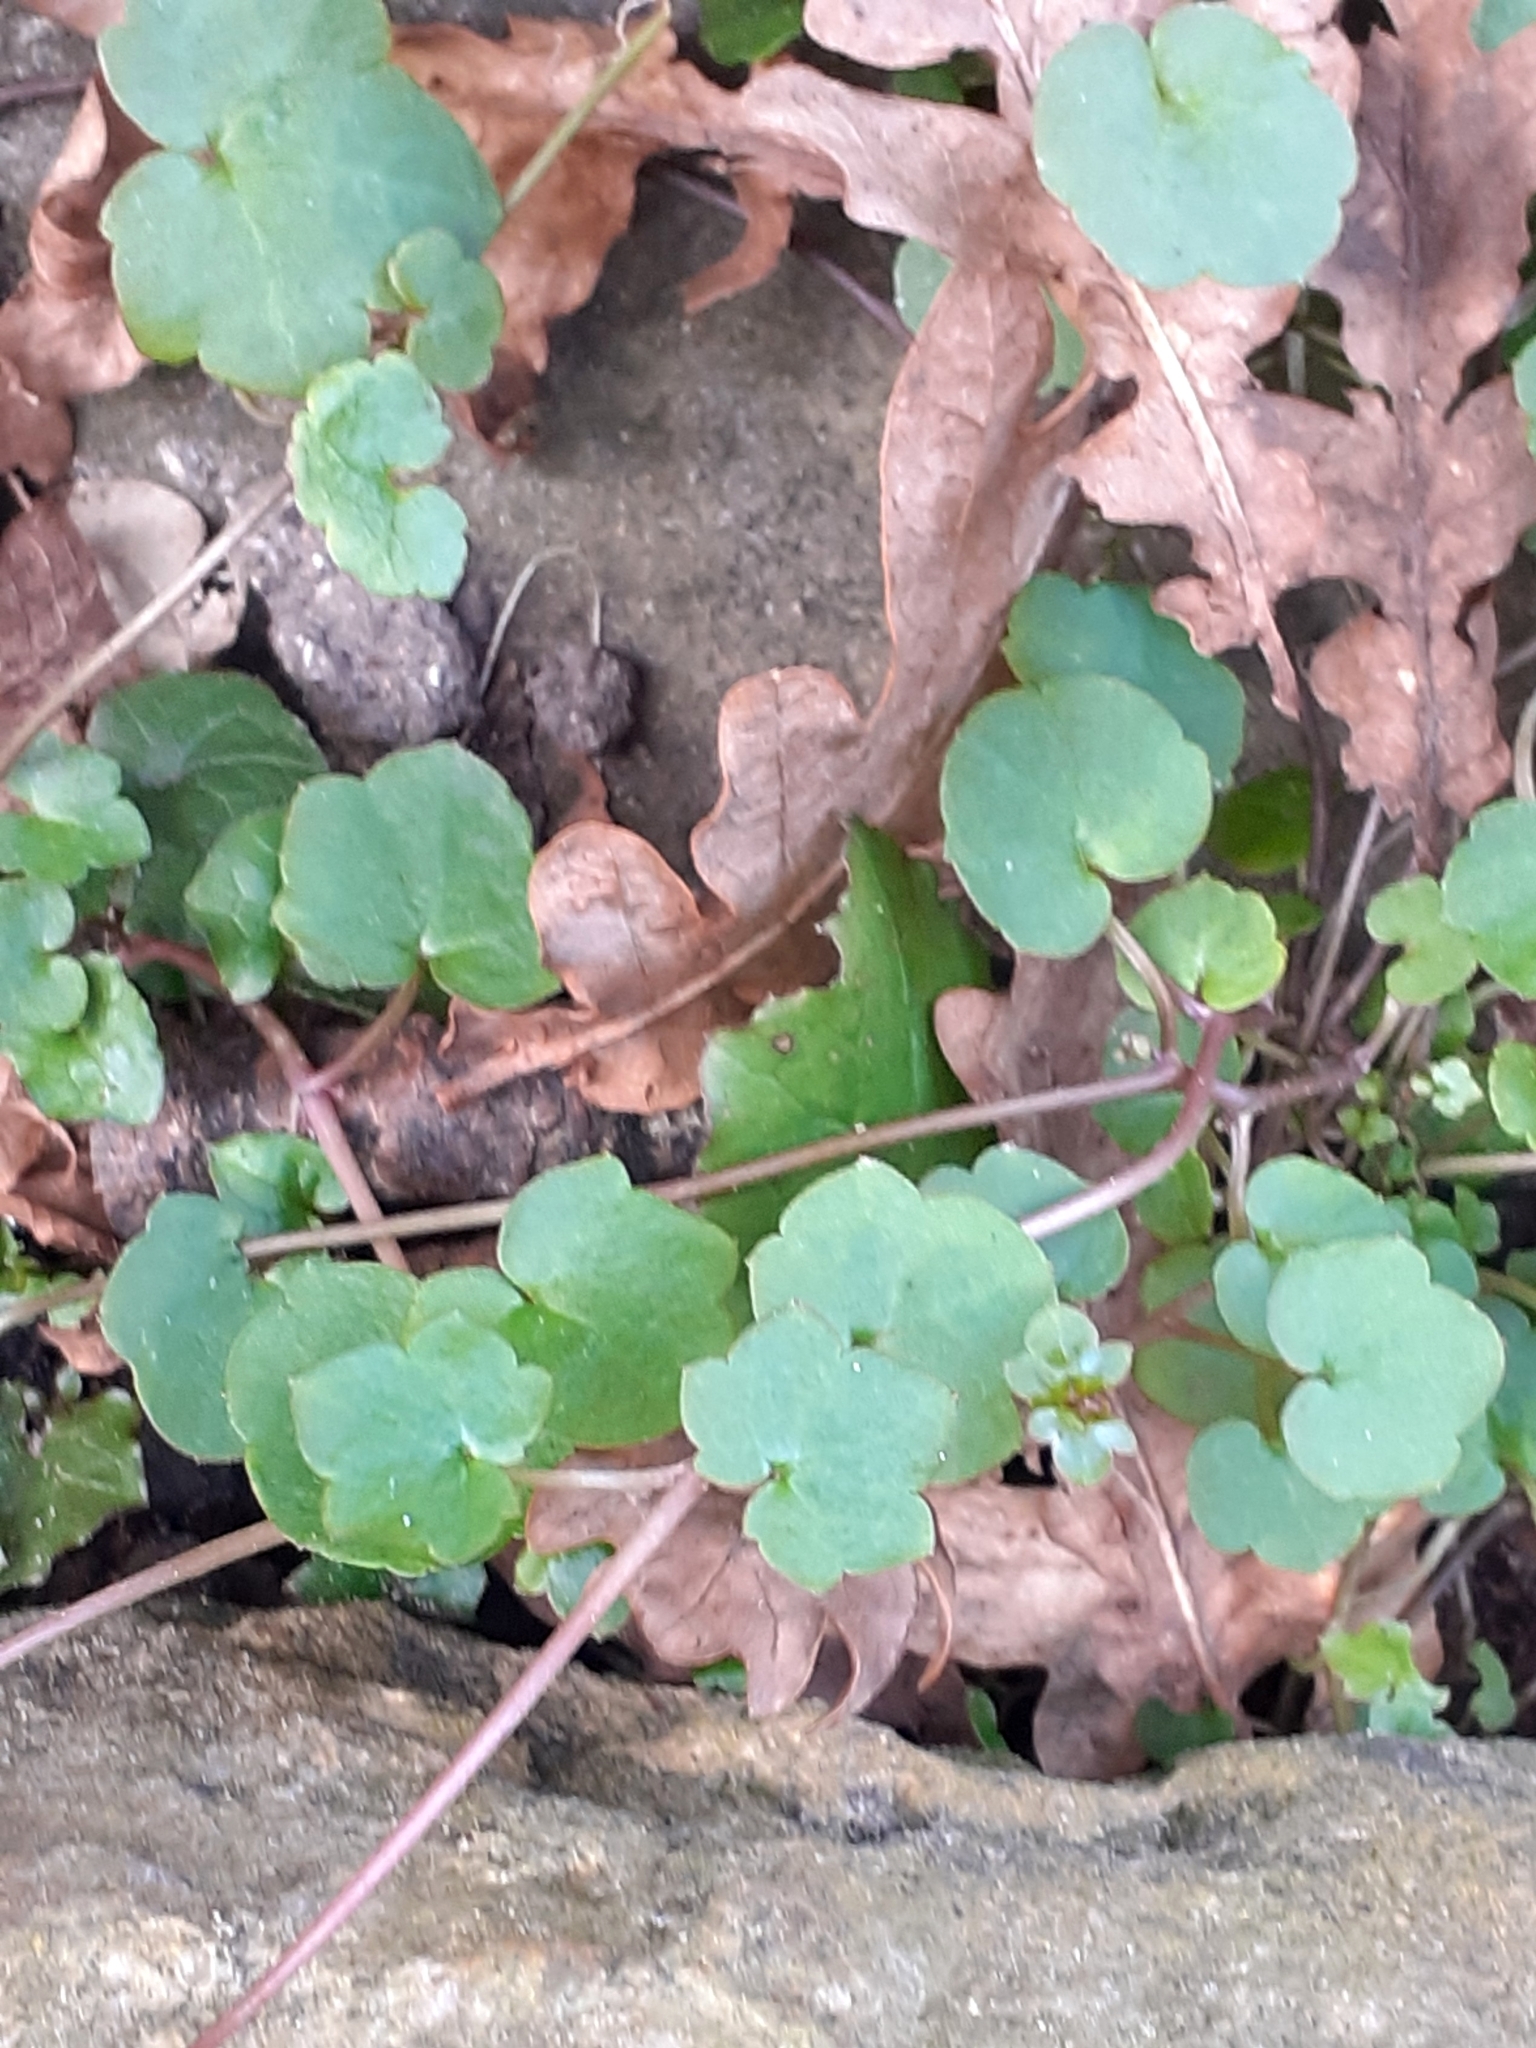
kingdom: Plantae
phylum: Tracheophyta
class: Magnoliopsida
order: Lamiales
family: Plantaginaceae
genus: Cymbalaria
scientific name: Cymbalaria muralis
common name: Ivy-leaved toadflax
